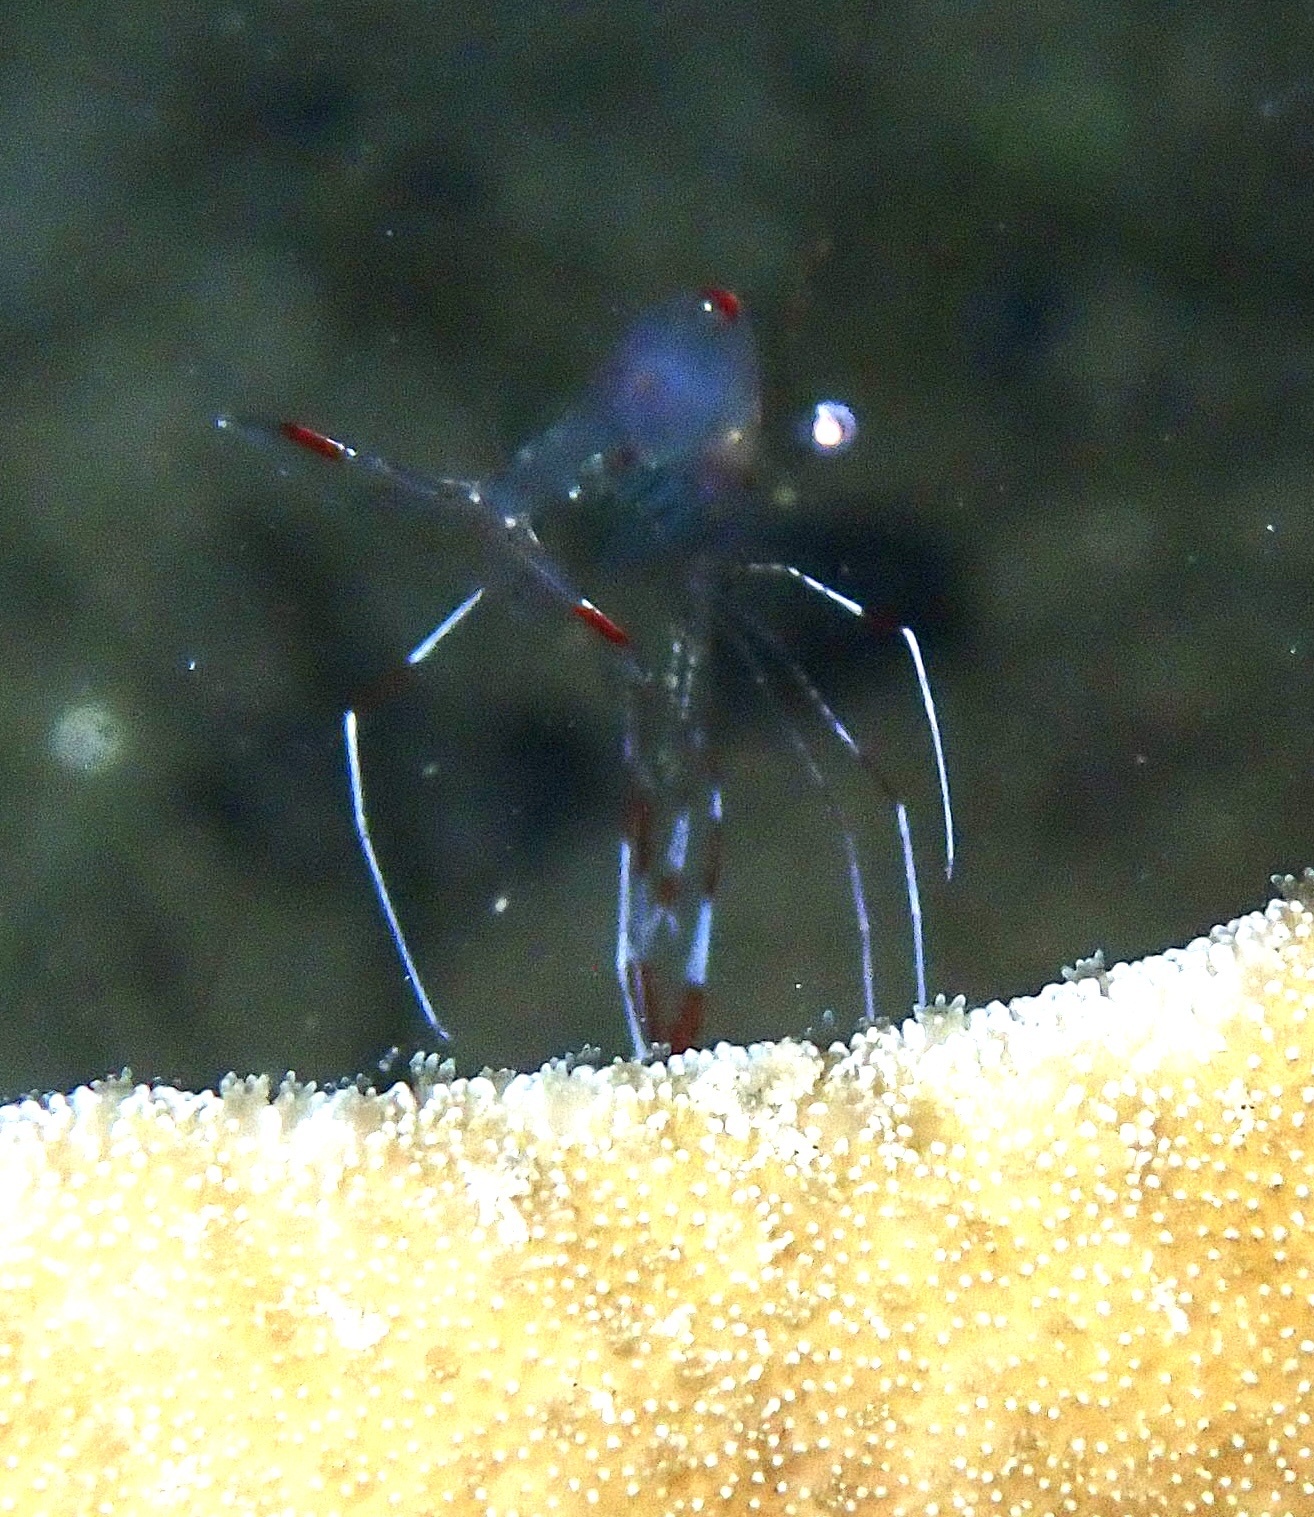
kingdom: Animalia
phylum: Arthropoda
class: Malacostraca
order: Decapoda
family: Palaemonidae
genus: Urocaridella
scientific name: Urocaridella pulchella
